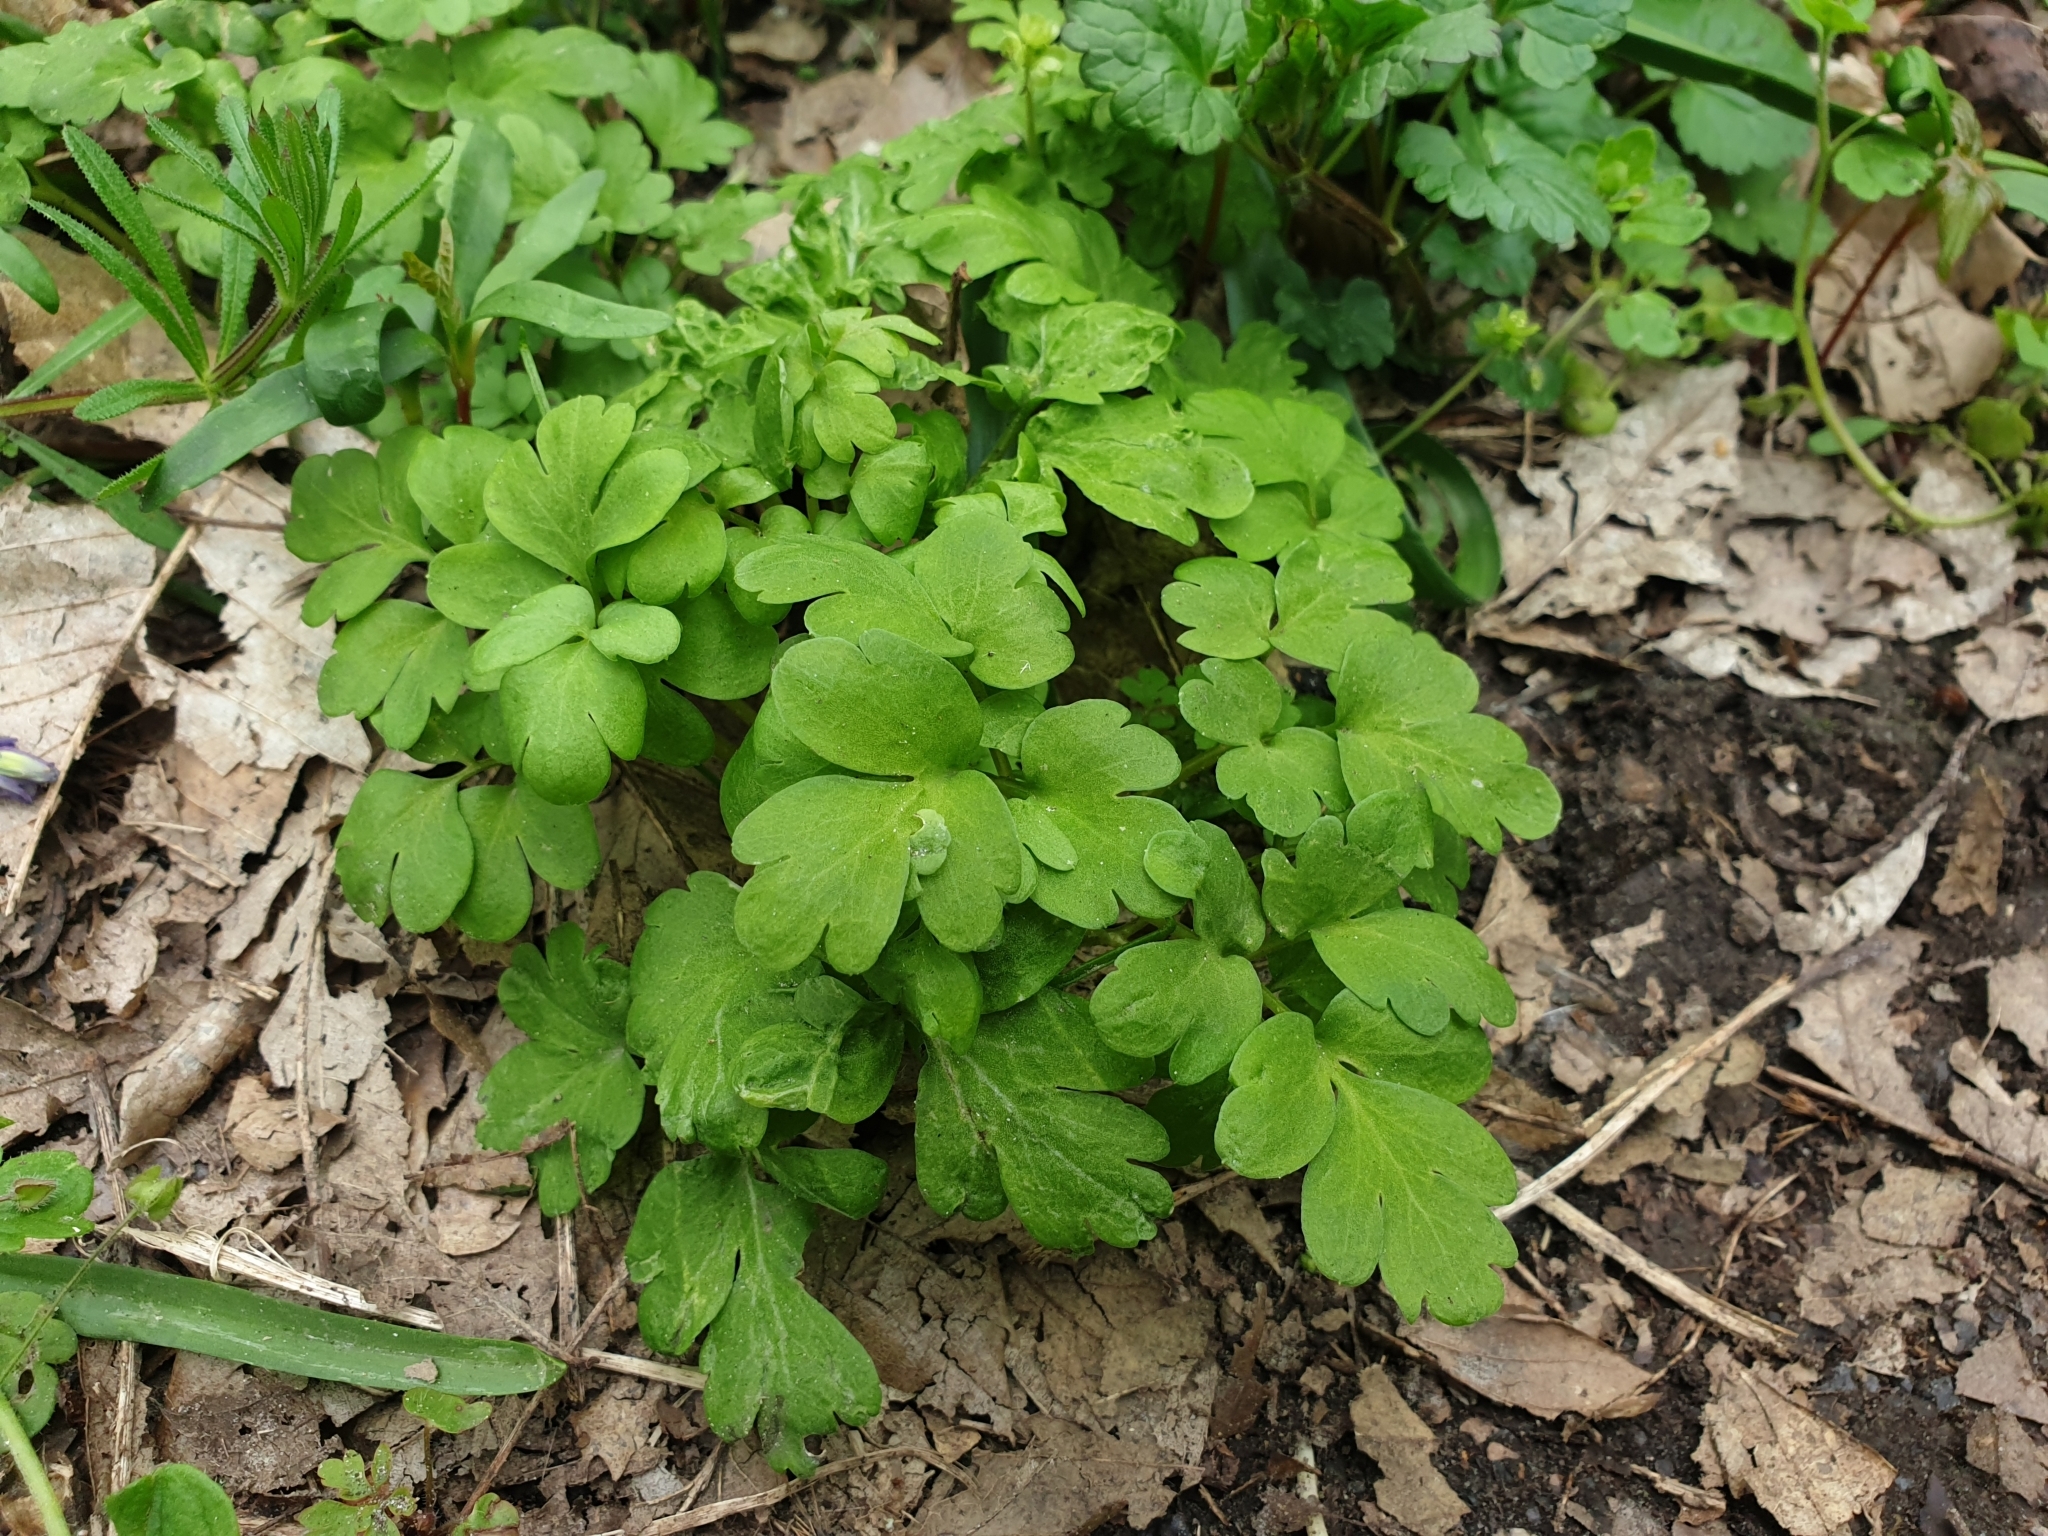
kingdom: Plantae
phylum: Tracheophyta
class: Magnoliopsida
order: Dipsacales
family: Viburnaceae
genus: Adoxa
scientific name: Adoxa moschatellina
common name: Moschatel
